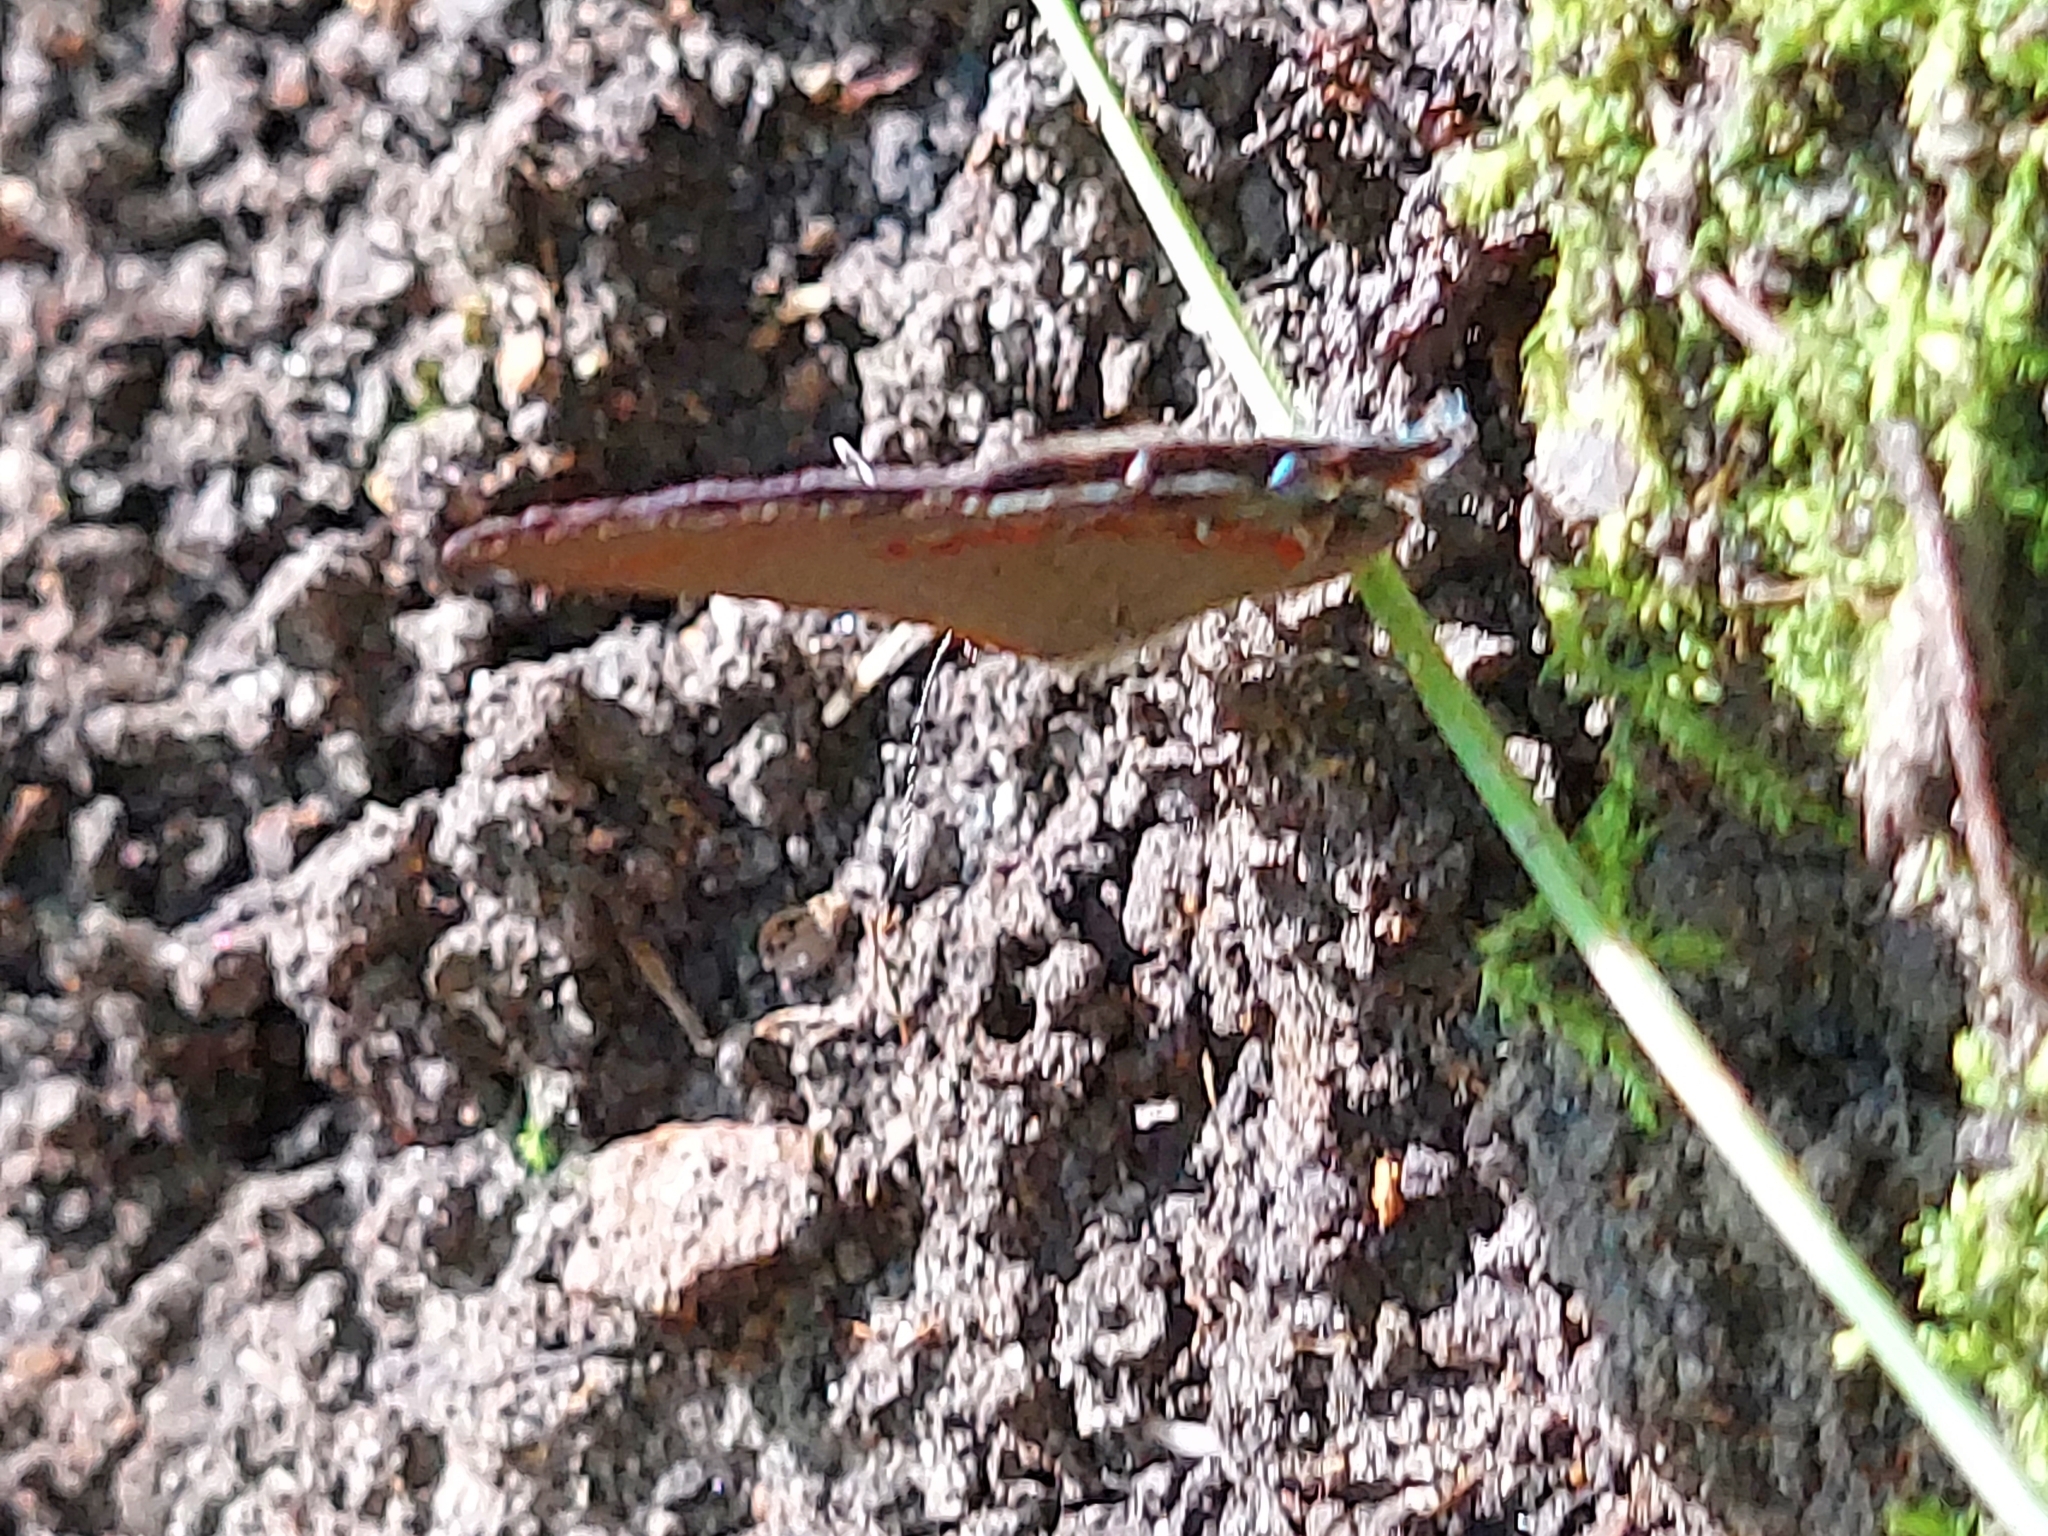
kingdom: Animalia
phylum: Arthropoda
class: Insecta
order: Lepidoptera
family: Lycaenidae
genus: Calycopis
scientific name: Calycopis cecrops
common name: Red-banded hairstreak
